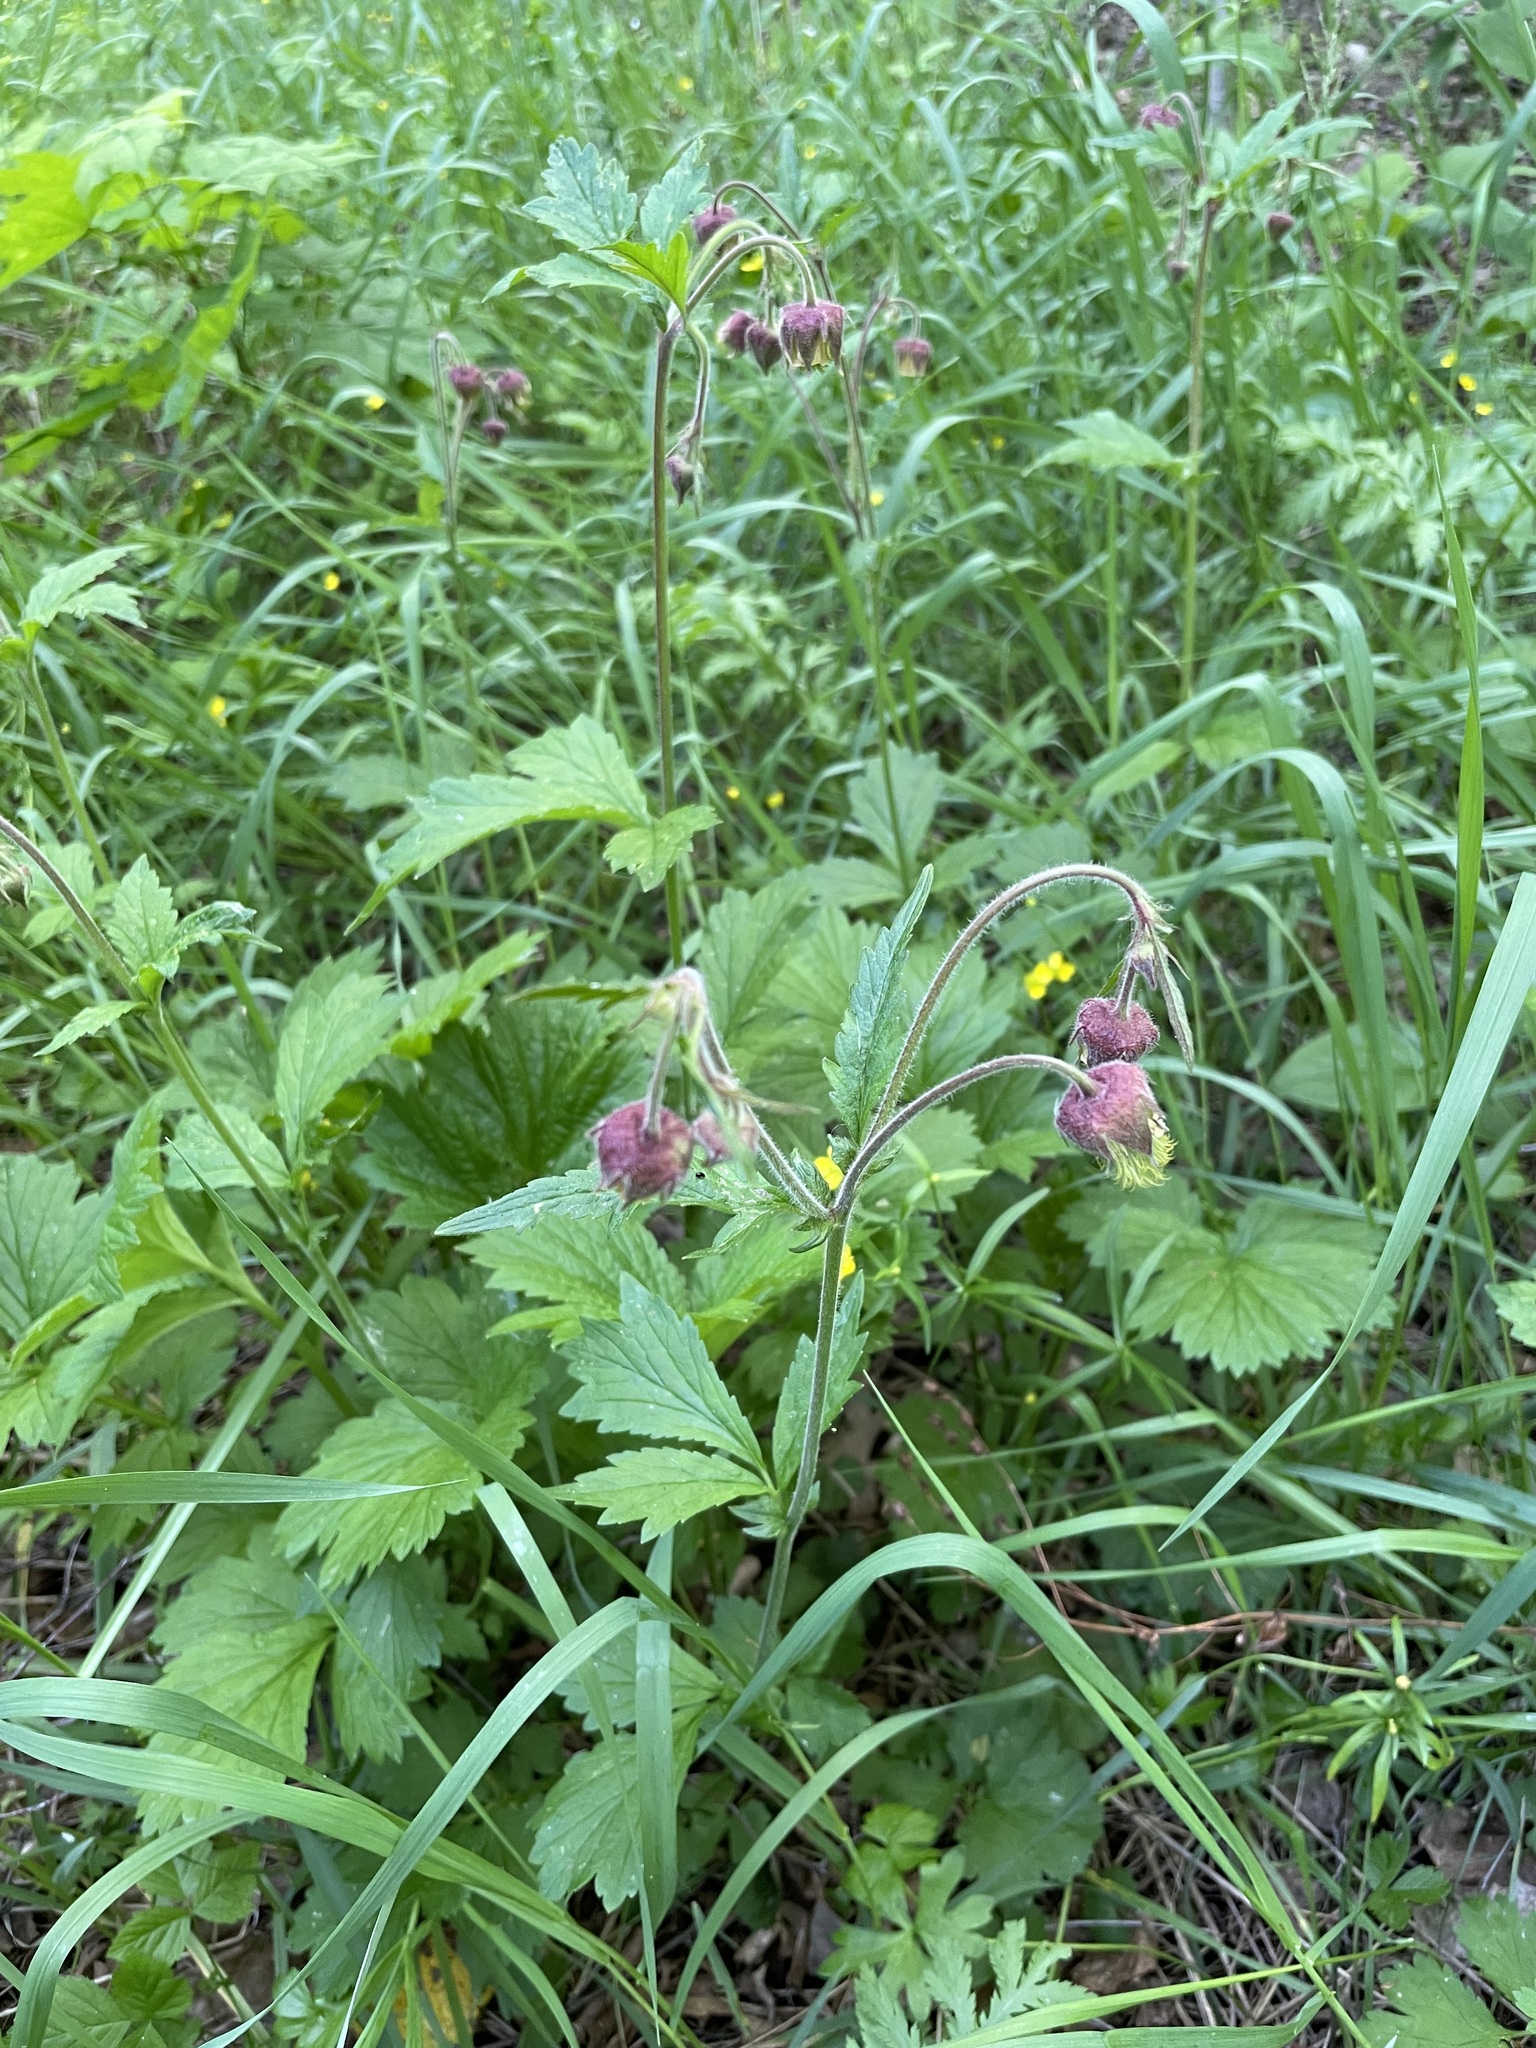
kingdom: Plantae
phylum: Tracheophyta
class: Magnoliopsida
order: Rosales
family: Rosaceae
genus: Geum
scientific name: Geum rivale
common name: Water avens
